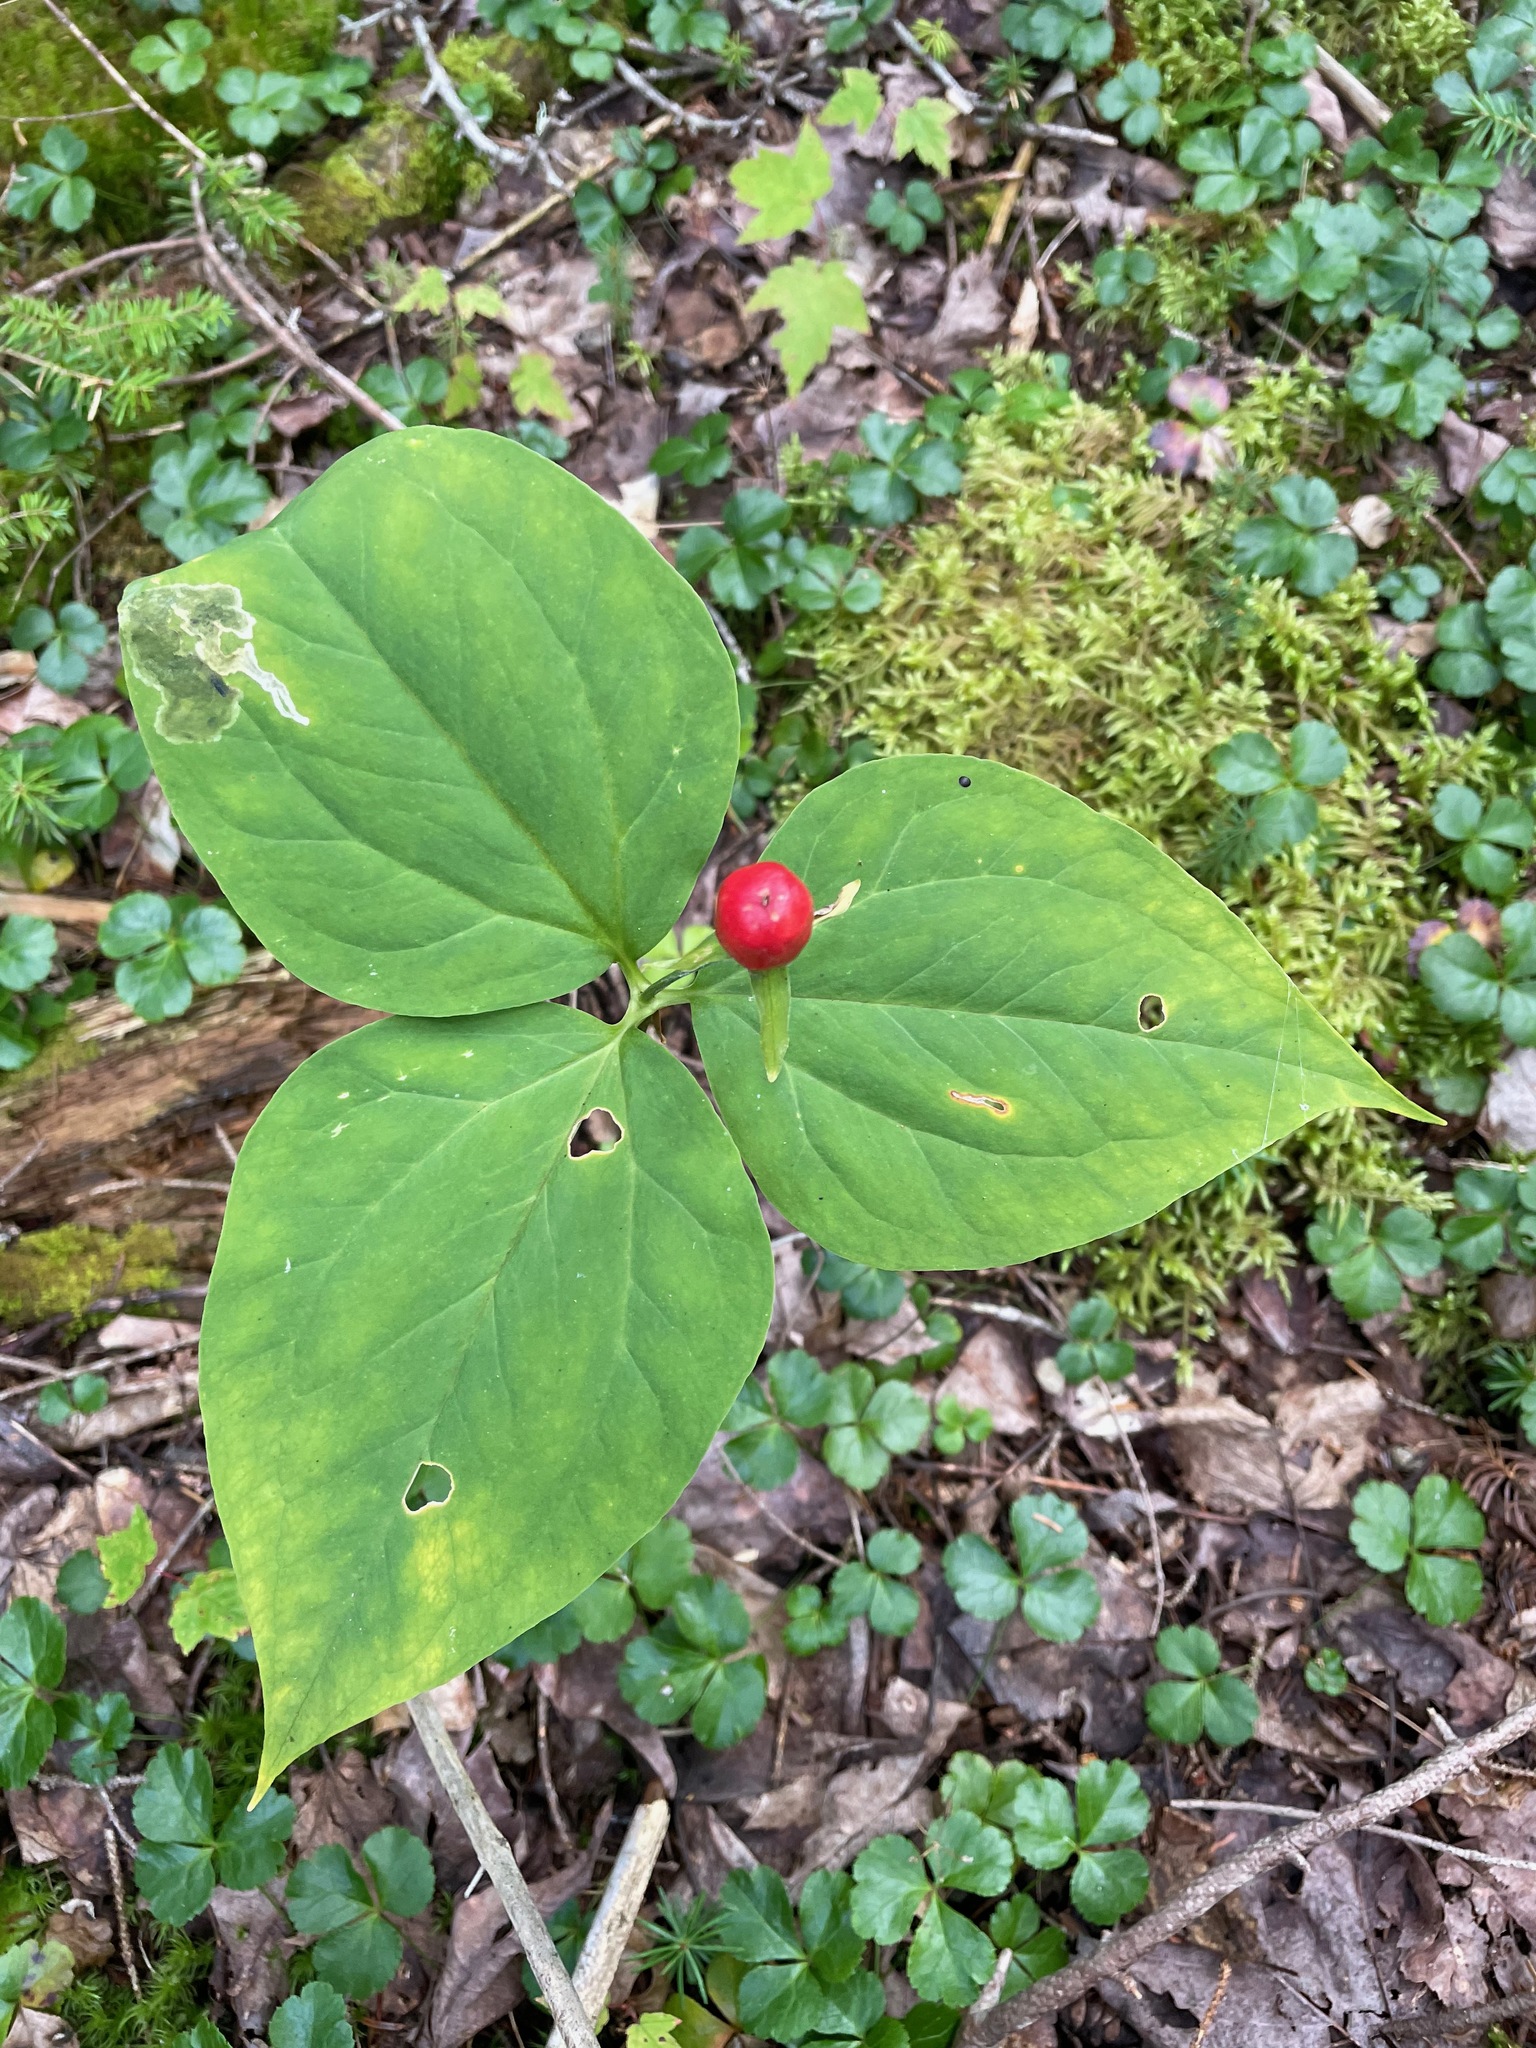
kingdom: Plantae
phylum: Tracheophyta
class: Liliopsida
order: Liliales
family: Melanthiaceae
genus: Trillium
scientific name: Trillium undulatum
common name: Paint trillium
